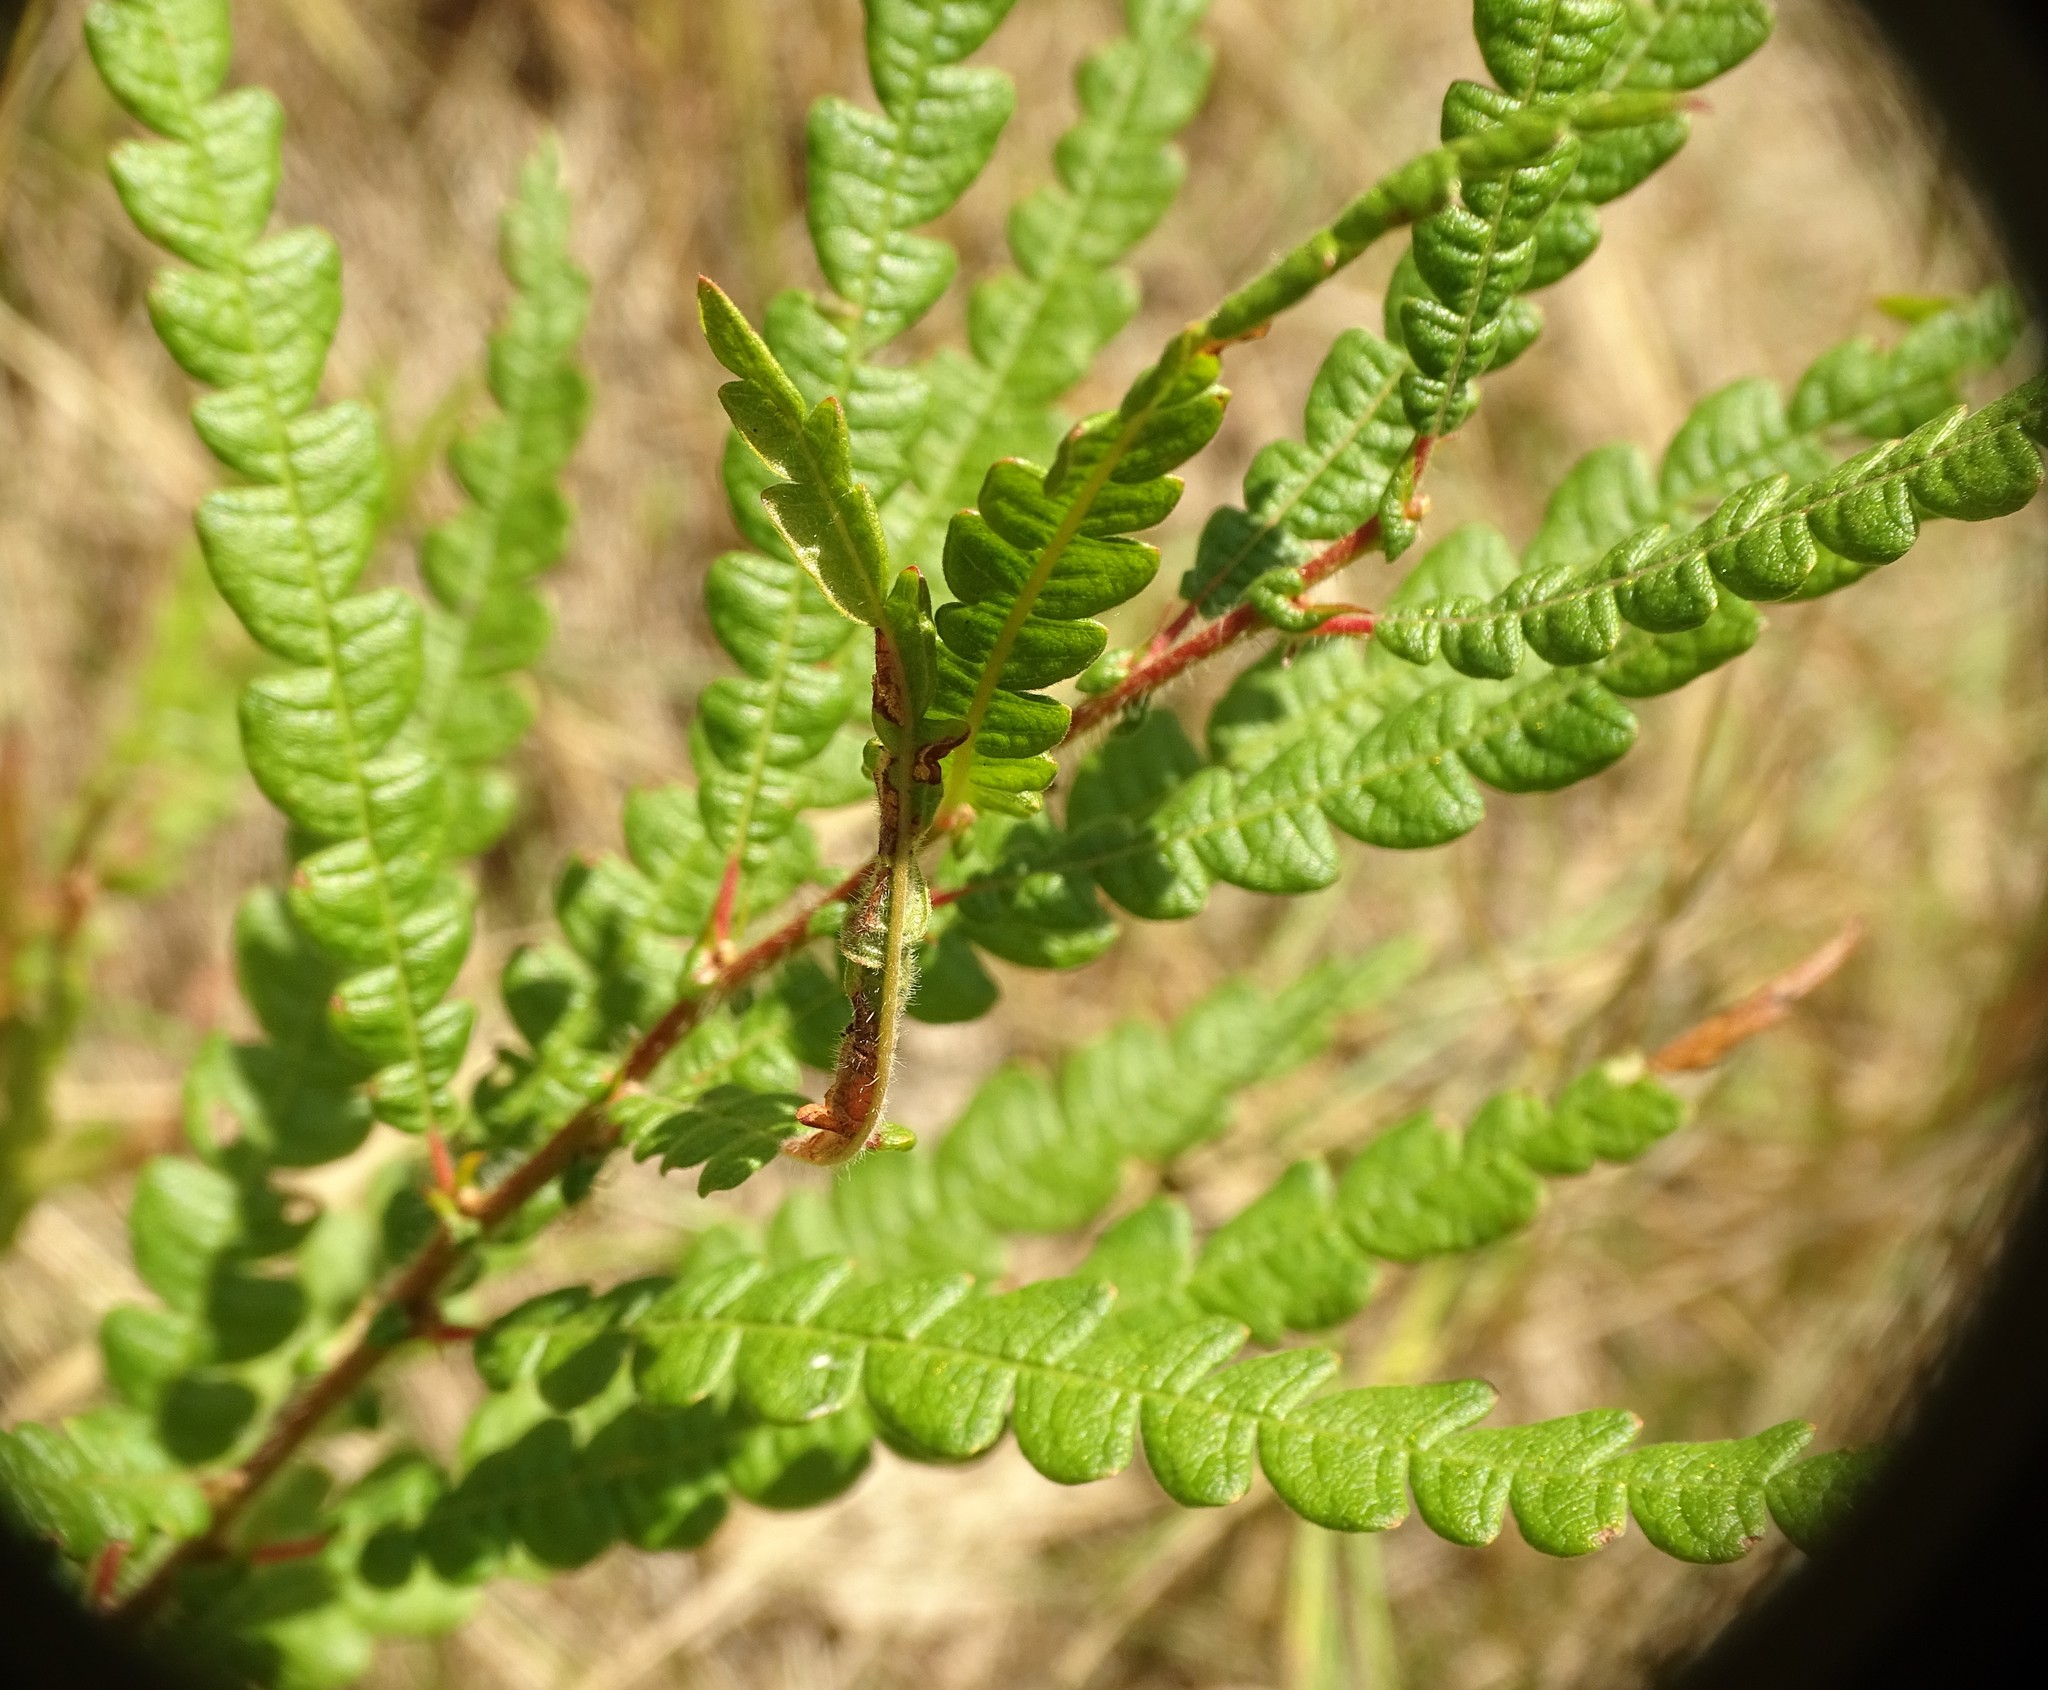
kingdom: Plantae
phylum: Tracheophyta
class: Magnoliopsida
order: Fagales
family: Myricaceae
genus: Comptonia
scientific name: Comptonia peregrina
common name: Sweet-fern
